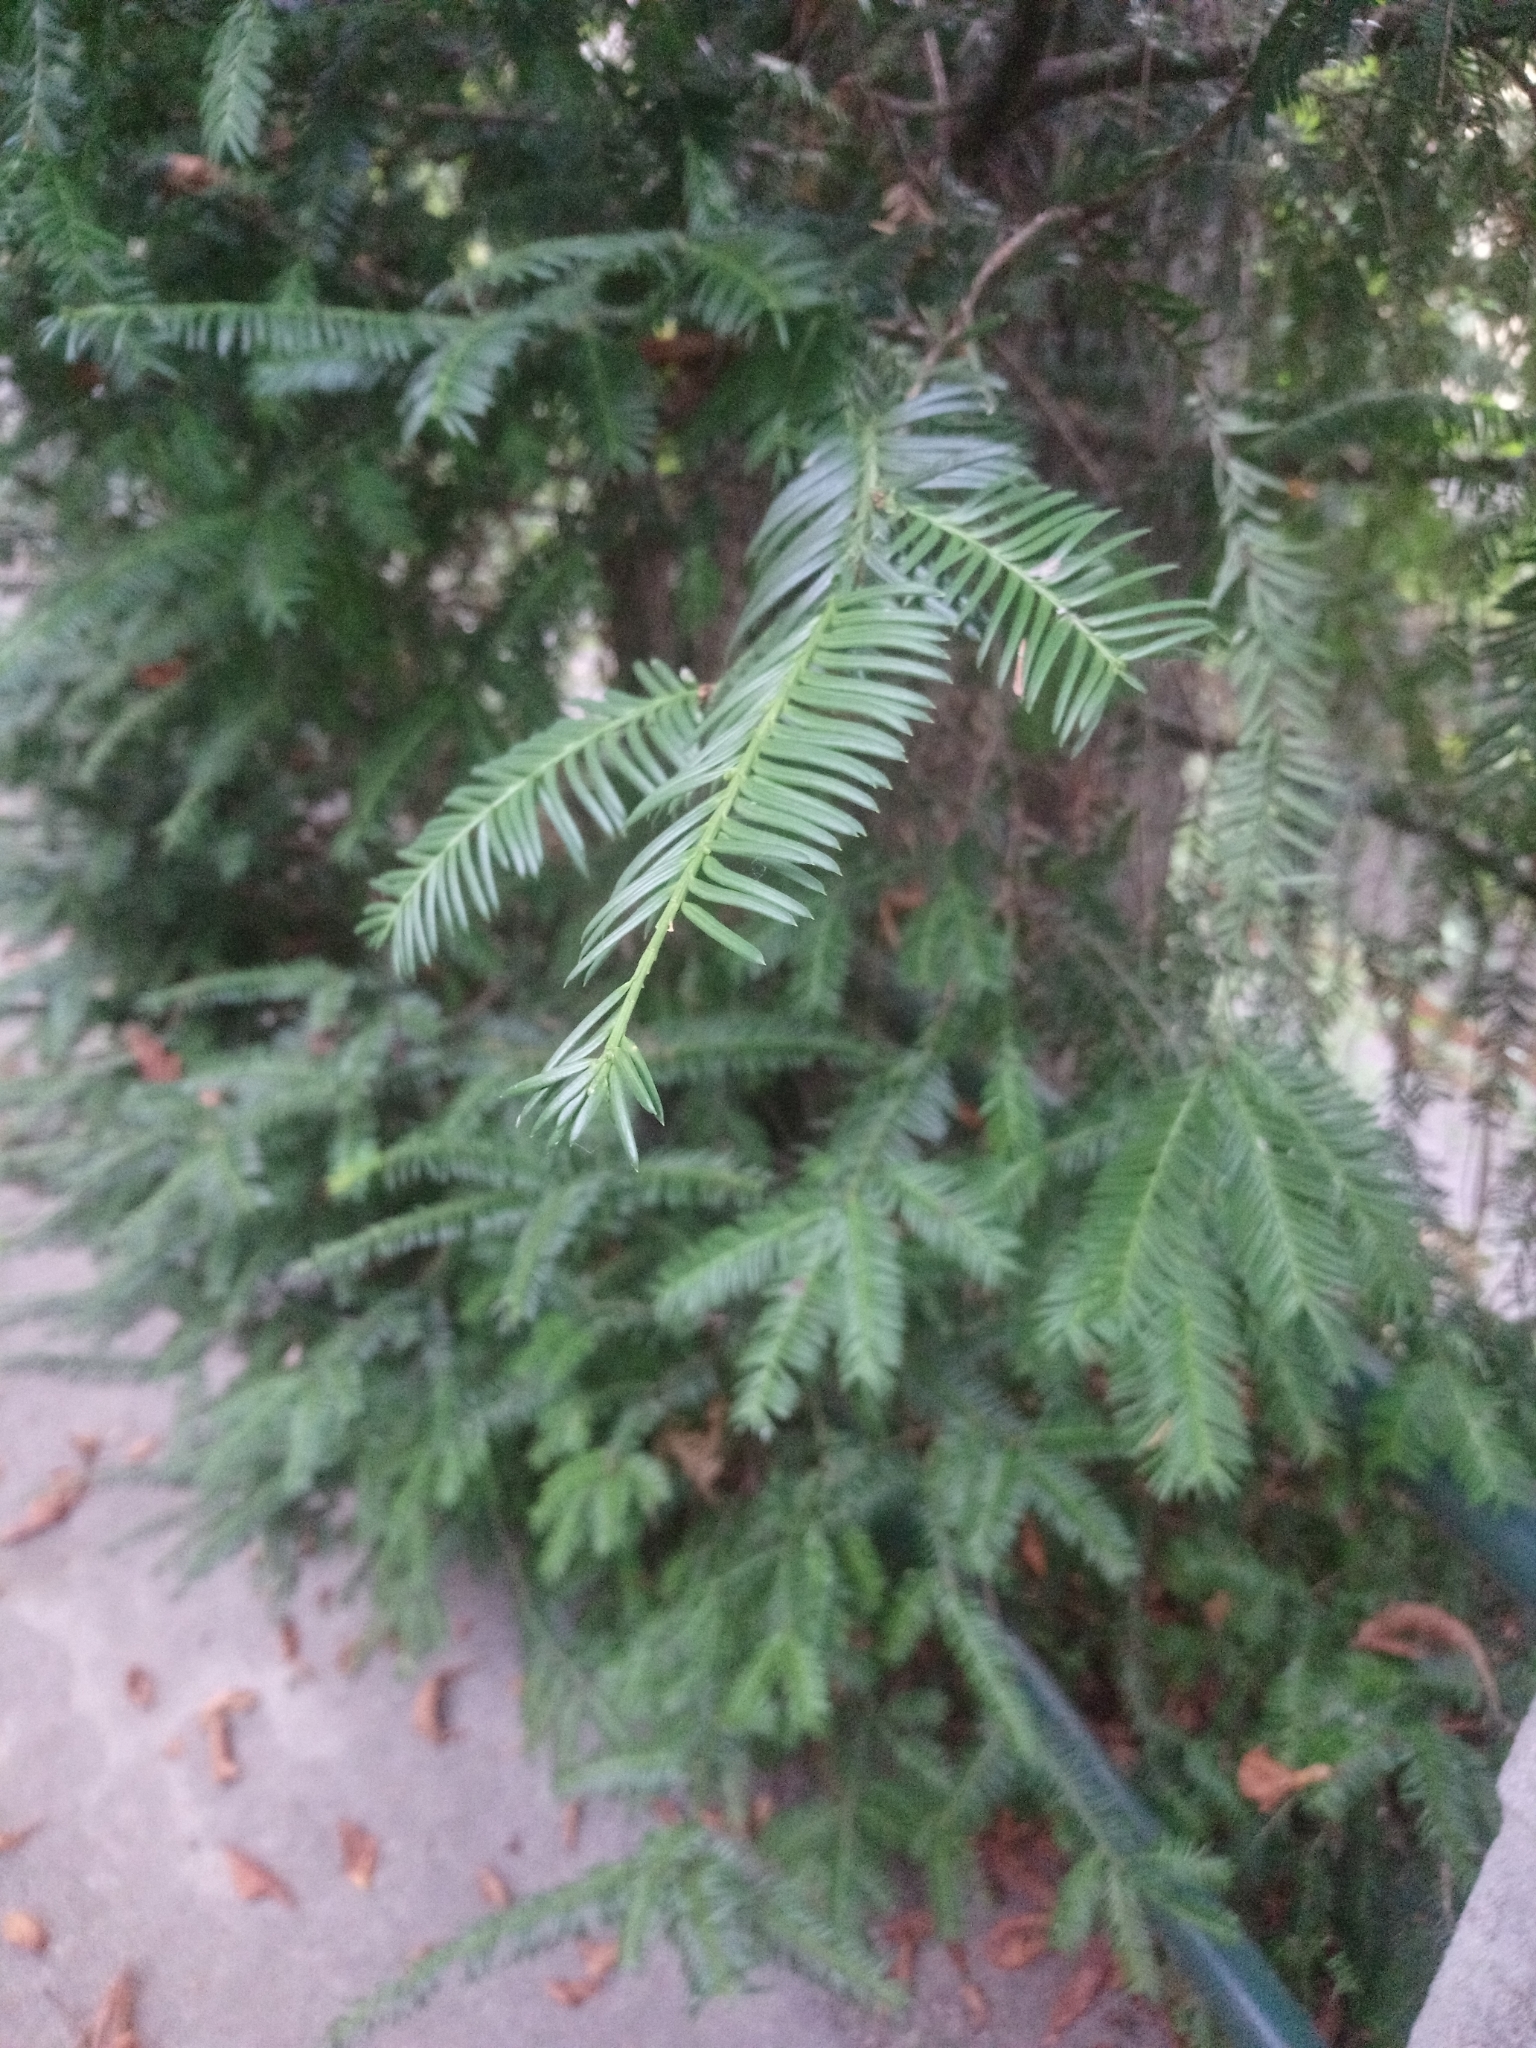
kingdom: Plantae
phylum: Tracheophyta
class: Pinopsida
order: Pinales
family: Taxaceae
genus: Taxus
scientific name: Taxus baccata
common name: Yew
